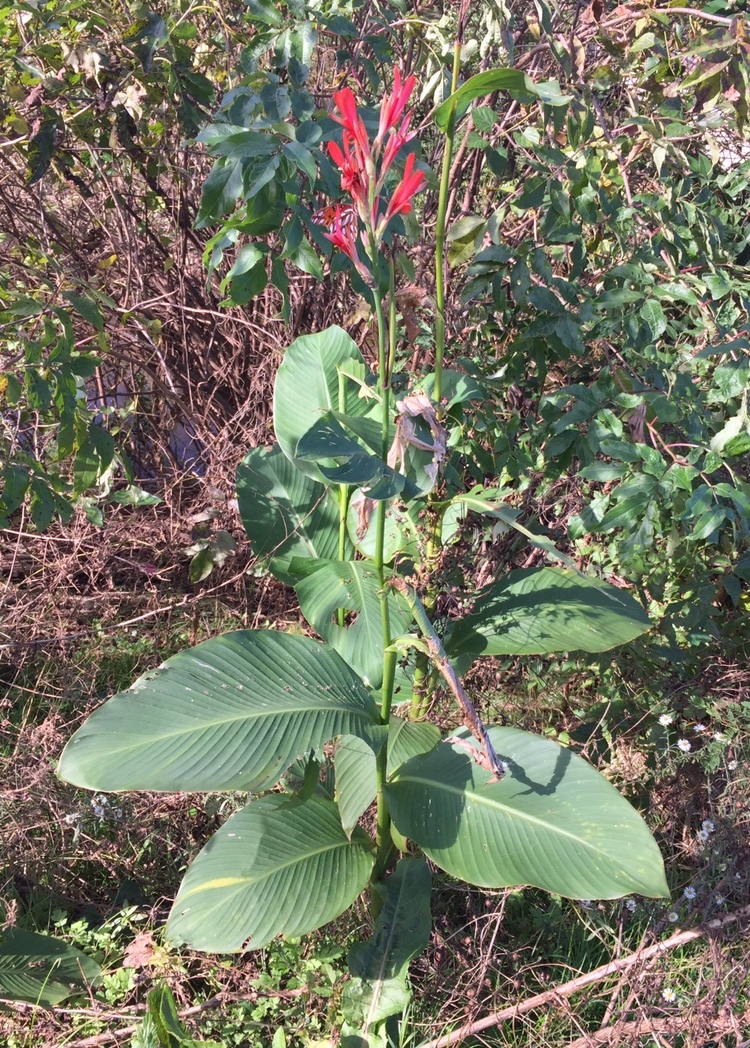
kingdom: Plantae
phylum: Tracheophyta
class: Liliopsida
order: Zingiberales
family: Cannaceae
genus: Canna
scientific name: Canna indica
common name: Indian shot
